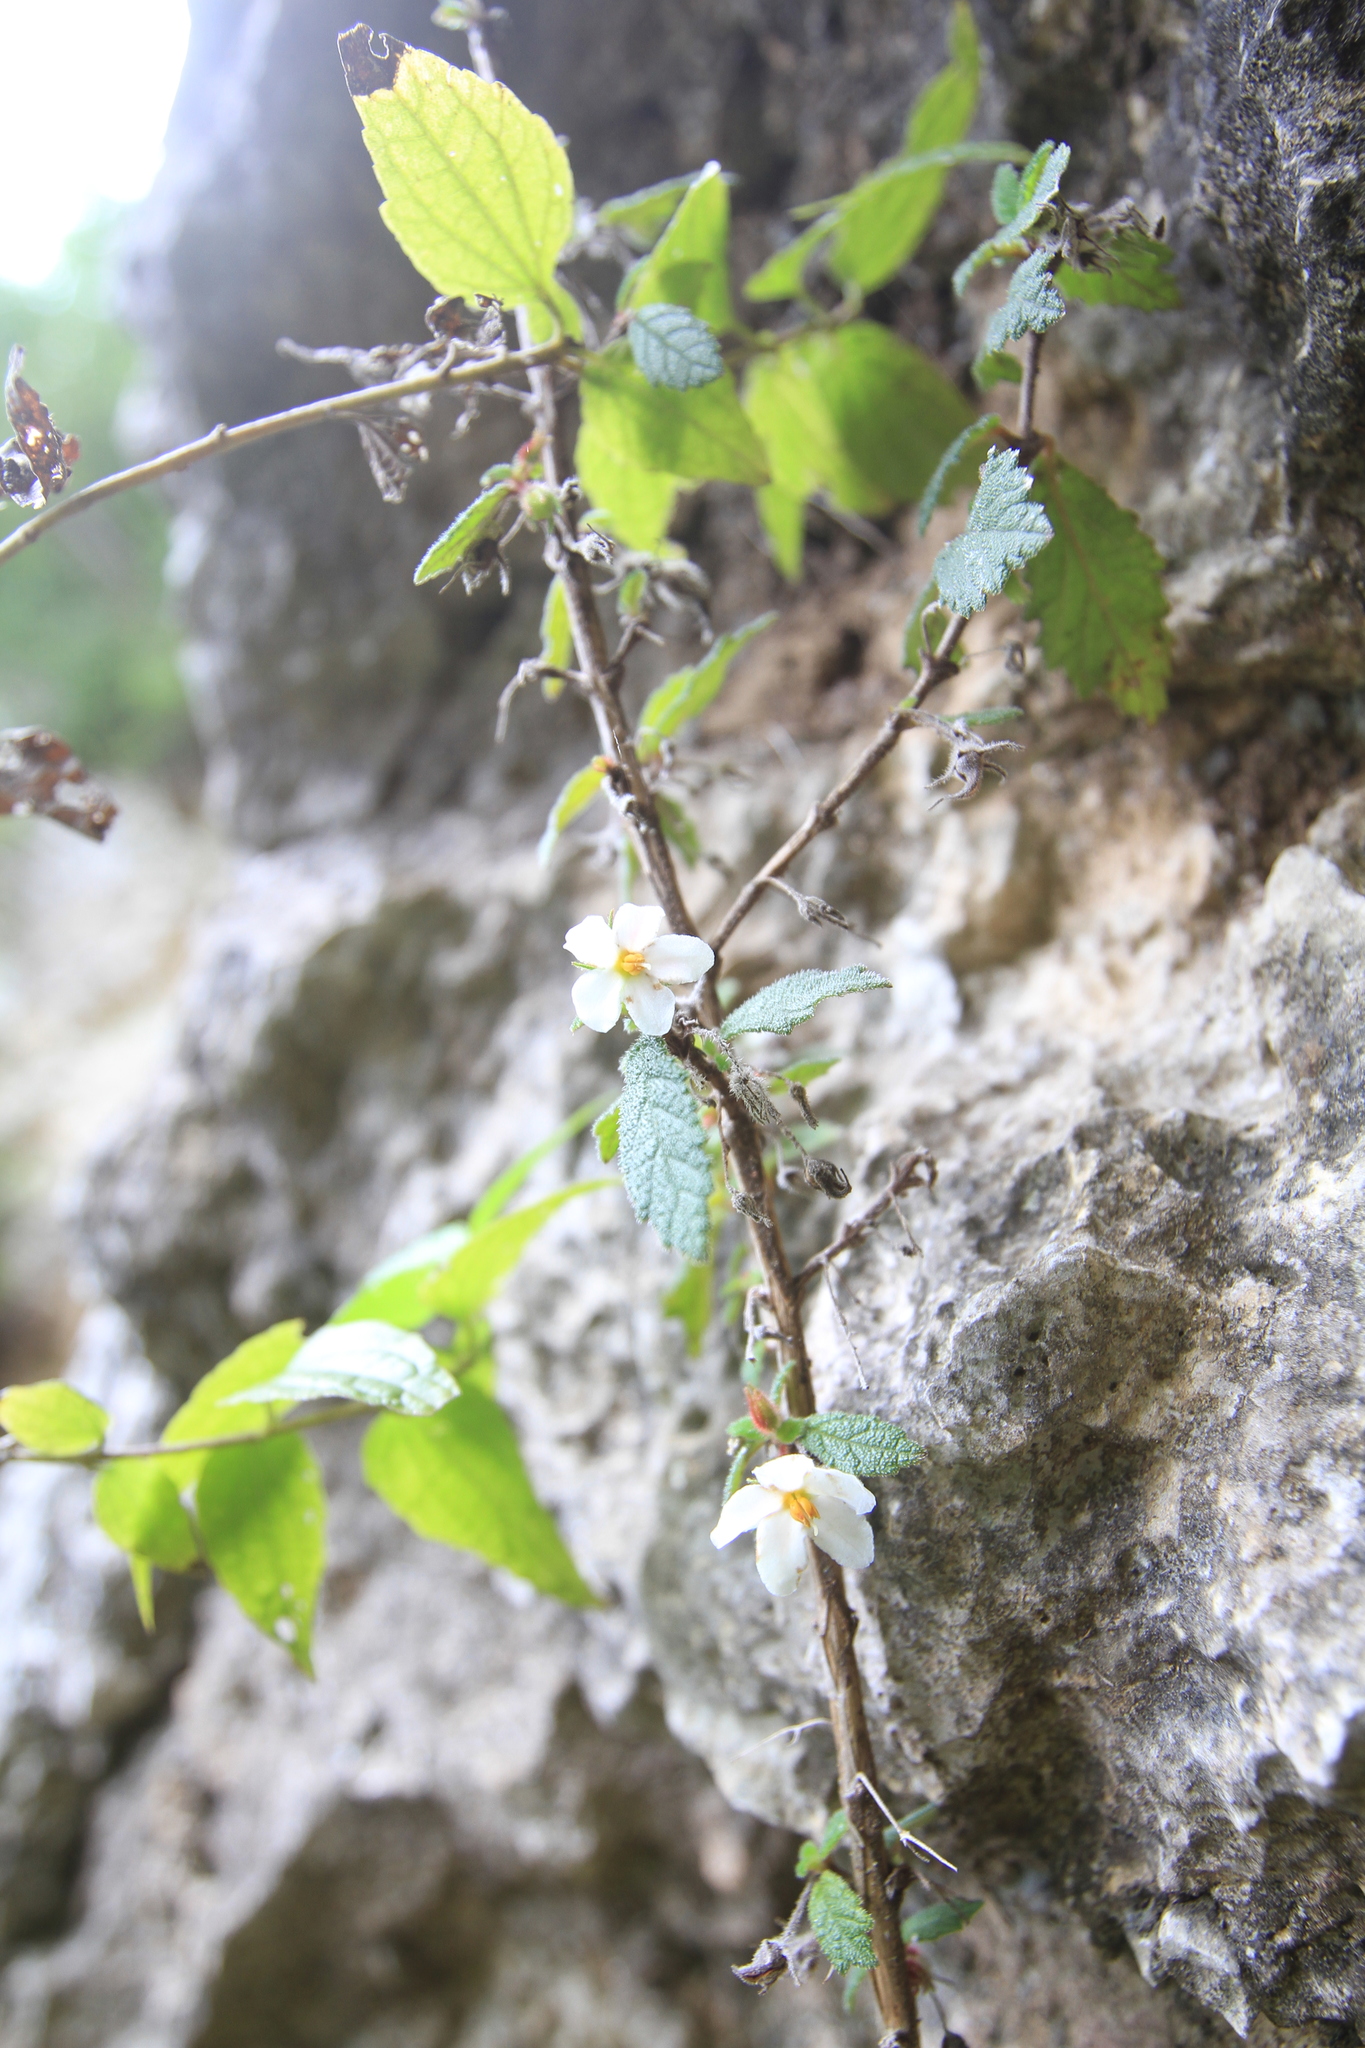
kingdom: Plantae
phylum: Tracheophyta
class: Magnoliopsida
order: Lamiales
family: Gesneriaceae
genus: Bellonia
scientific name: Bellonia spinosa
